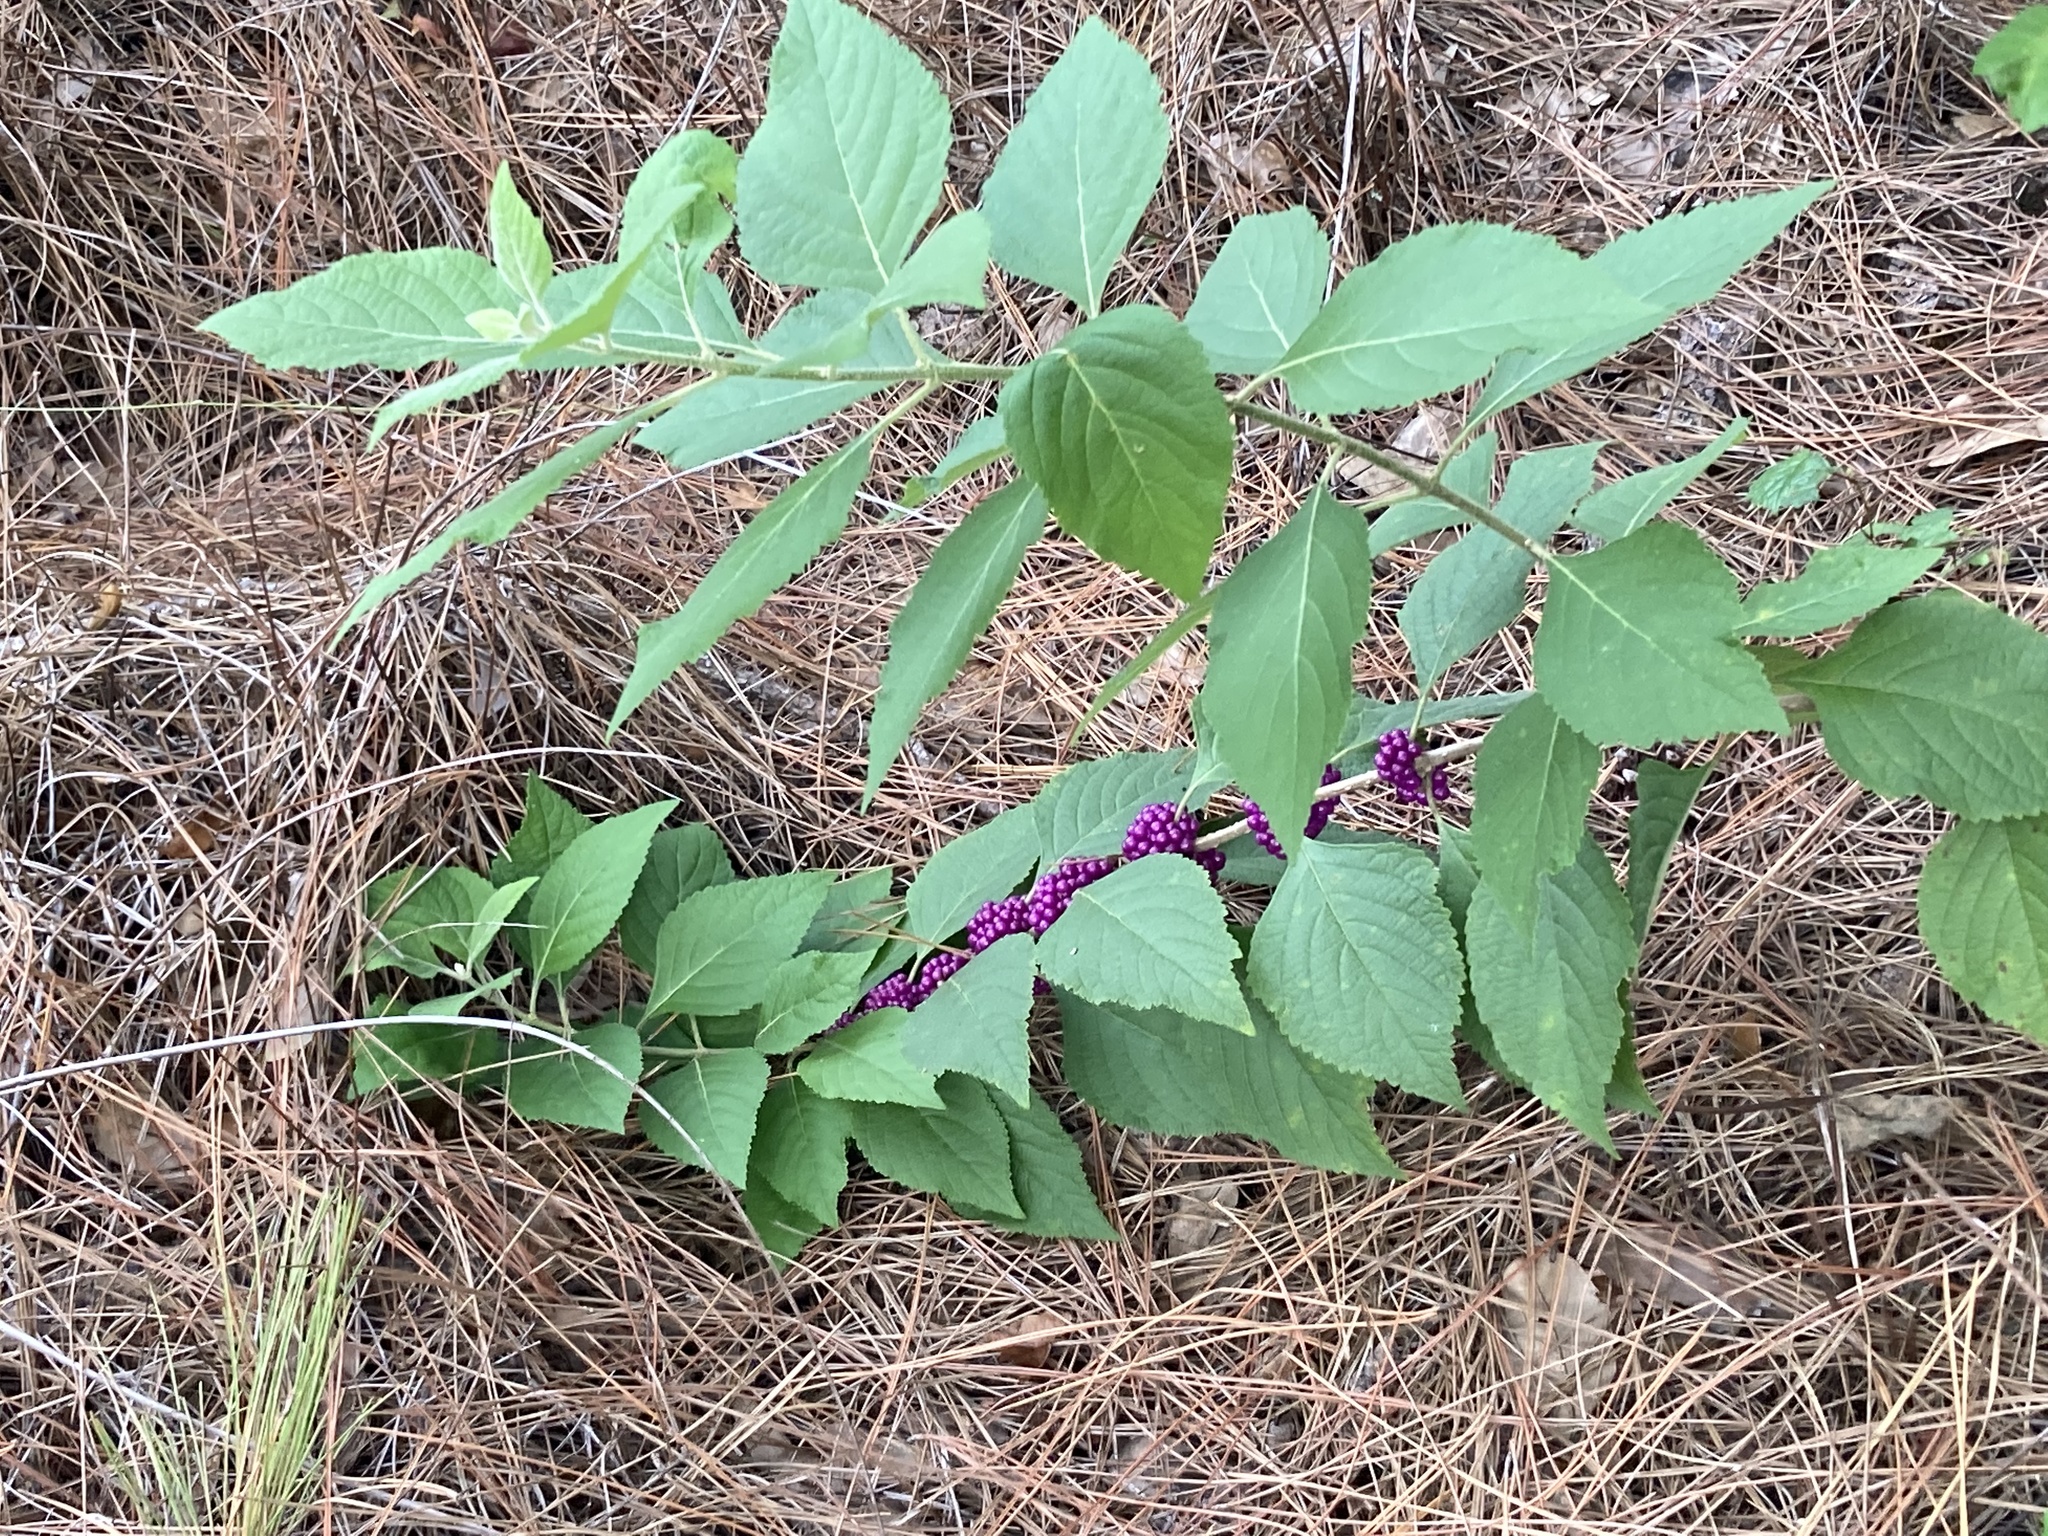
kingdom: Plantae
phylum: Tracheophyta
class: Magnoliopsida
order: Lamiales
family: Lamiaceae
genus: Callicarpa
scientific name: Callicarpa americana
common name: American beautyberry
